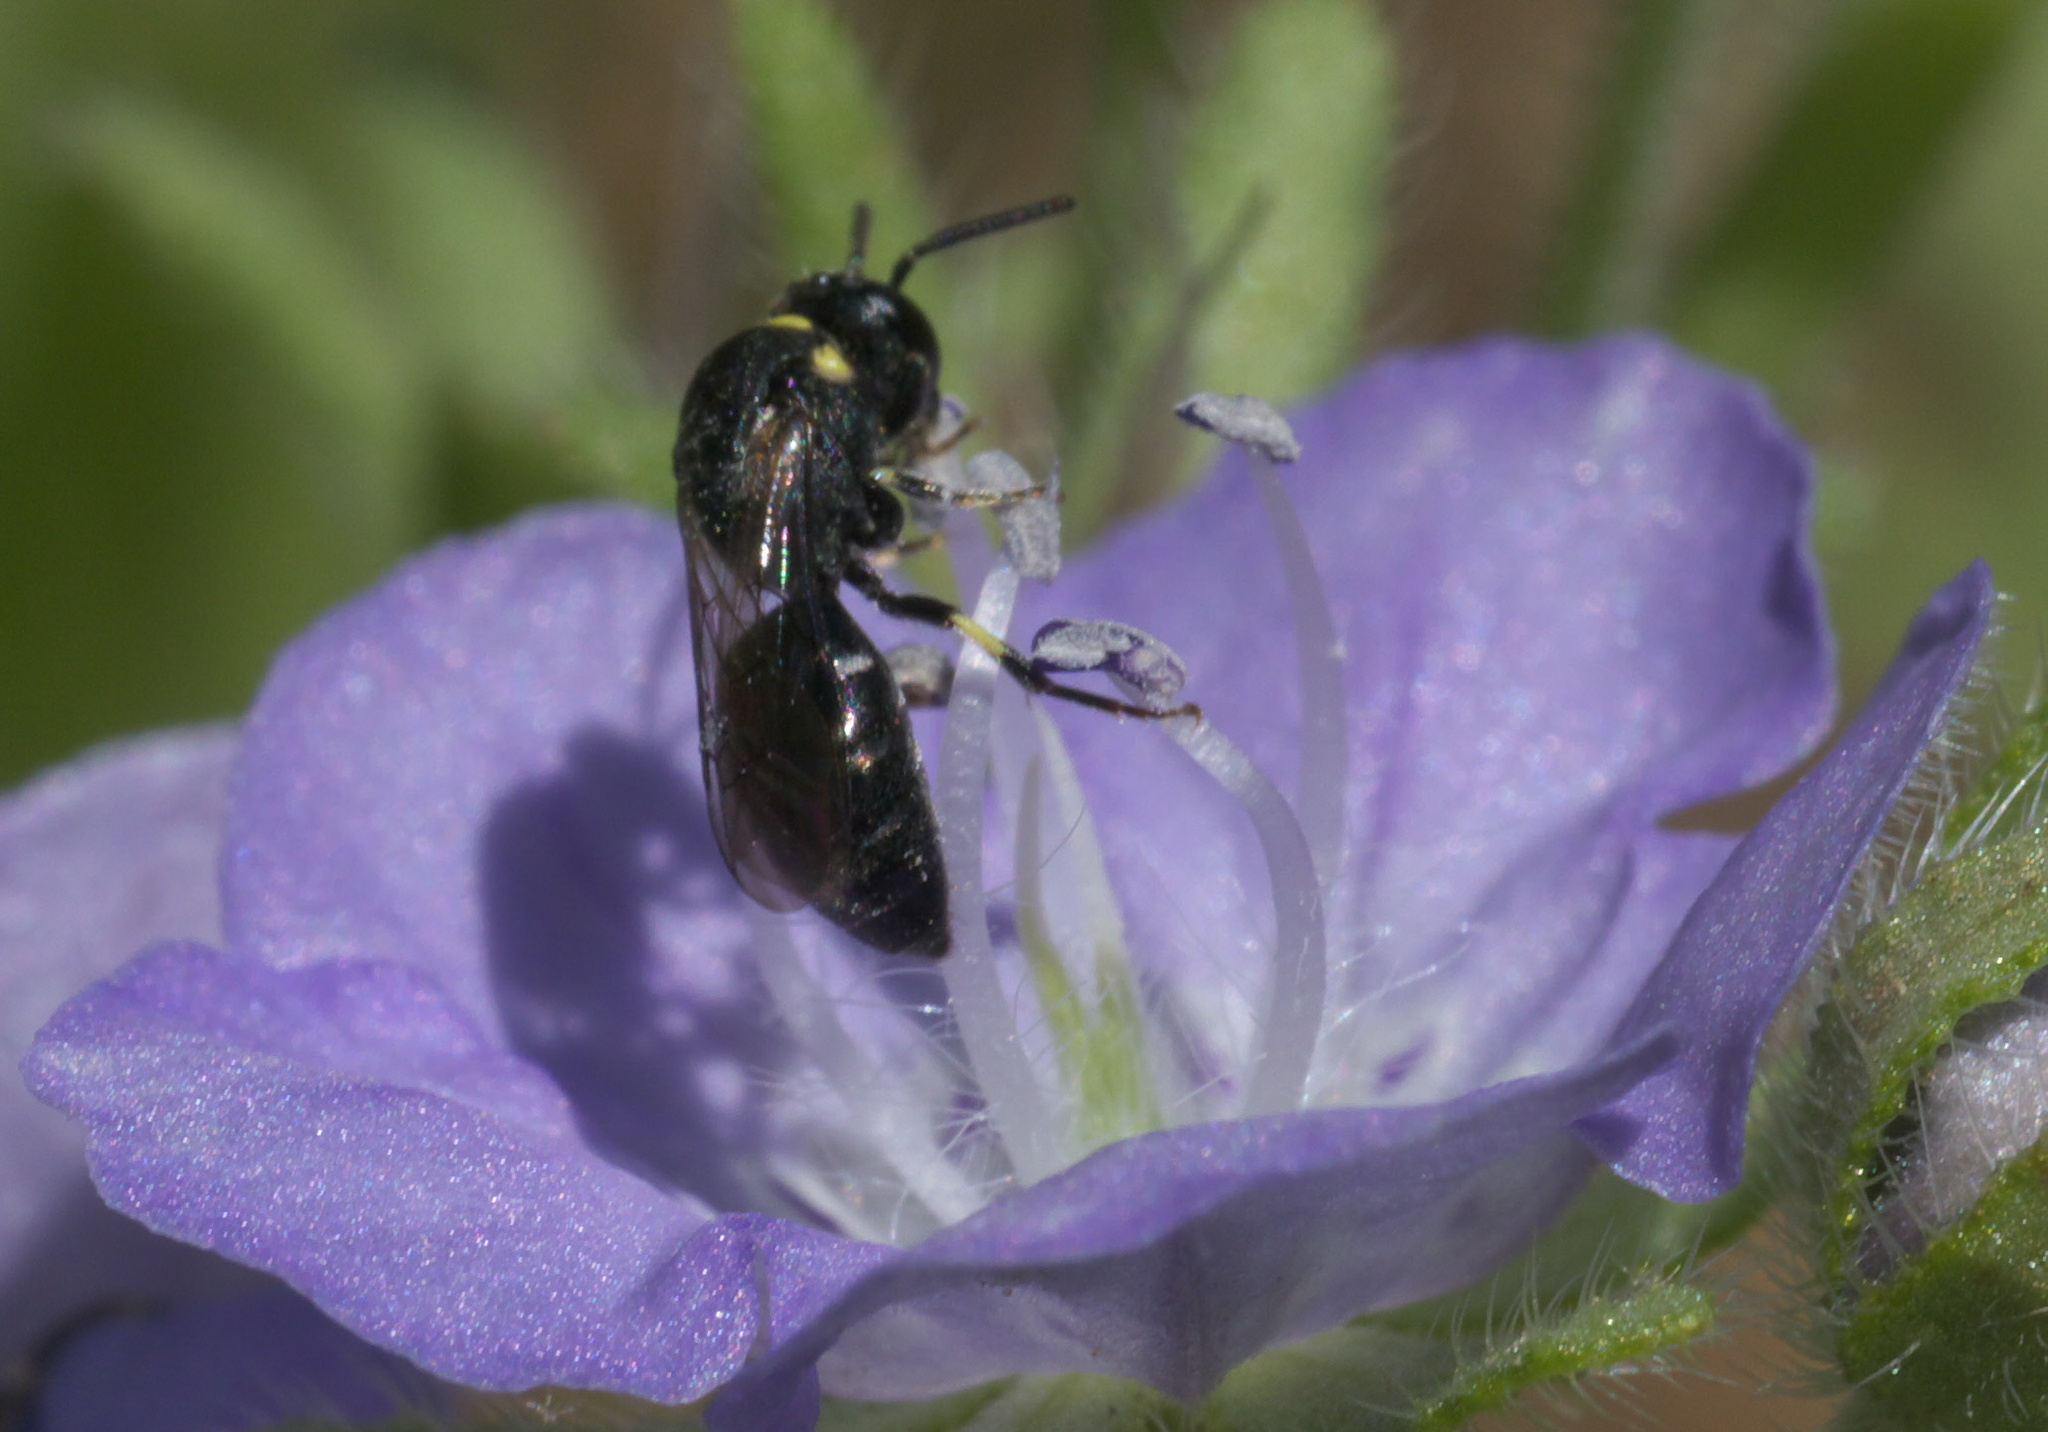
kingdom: Animalia
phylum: Arthropoda
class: Insecta
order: Hymenoptera
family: Colletidae
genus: Hylaeus
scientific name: Hylaeus modestus
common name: Yellow-faced bee
